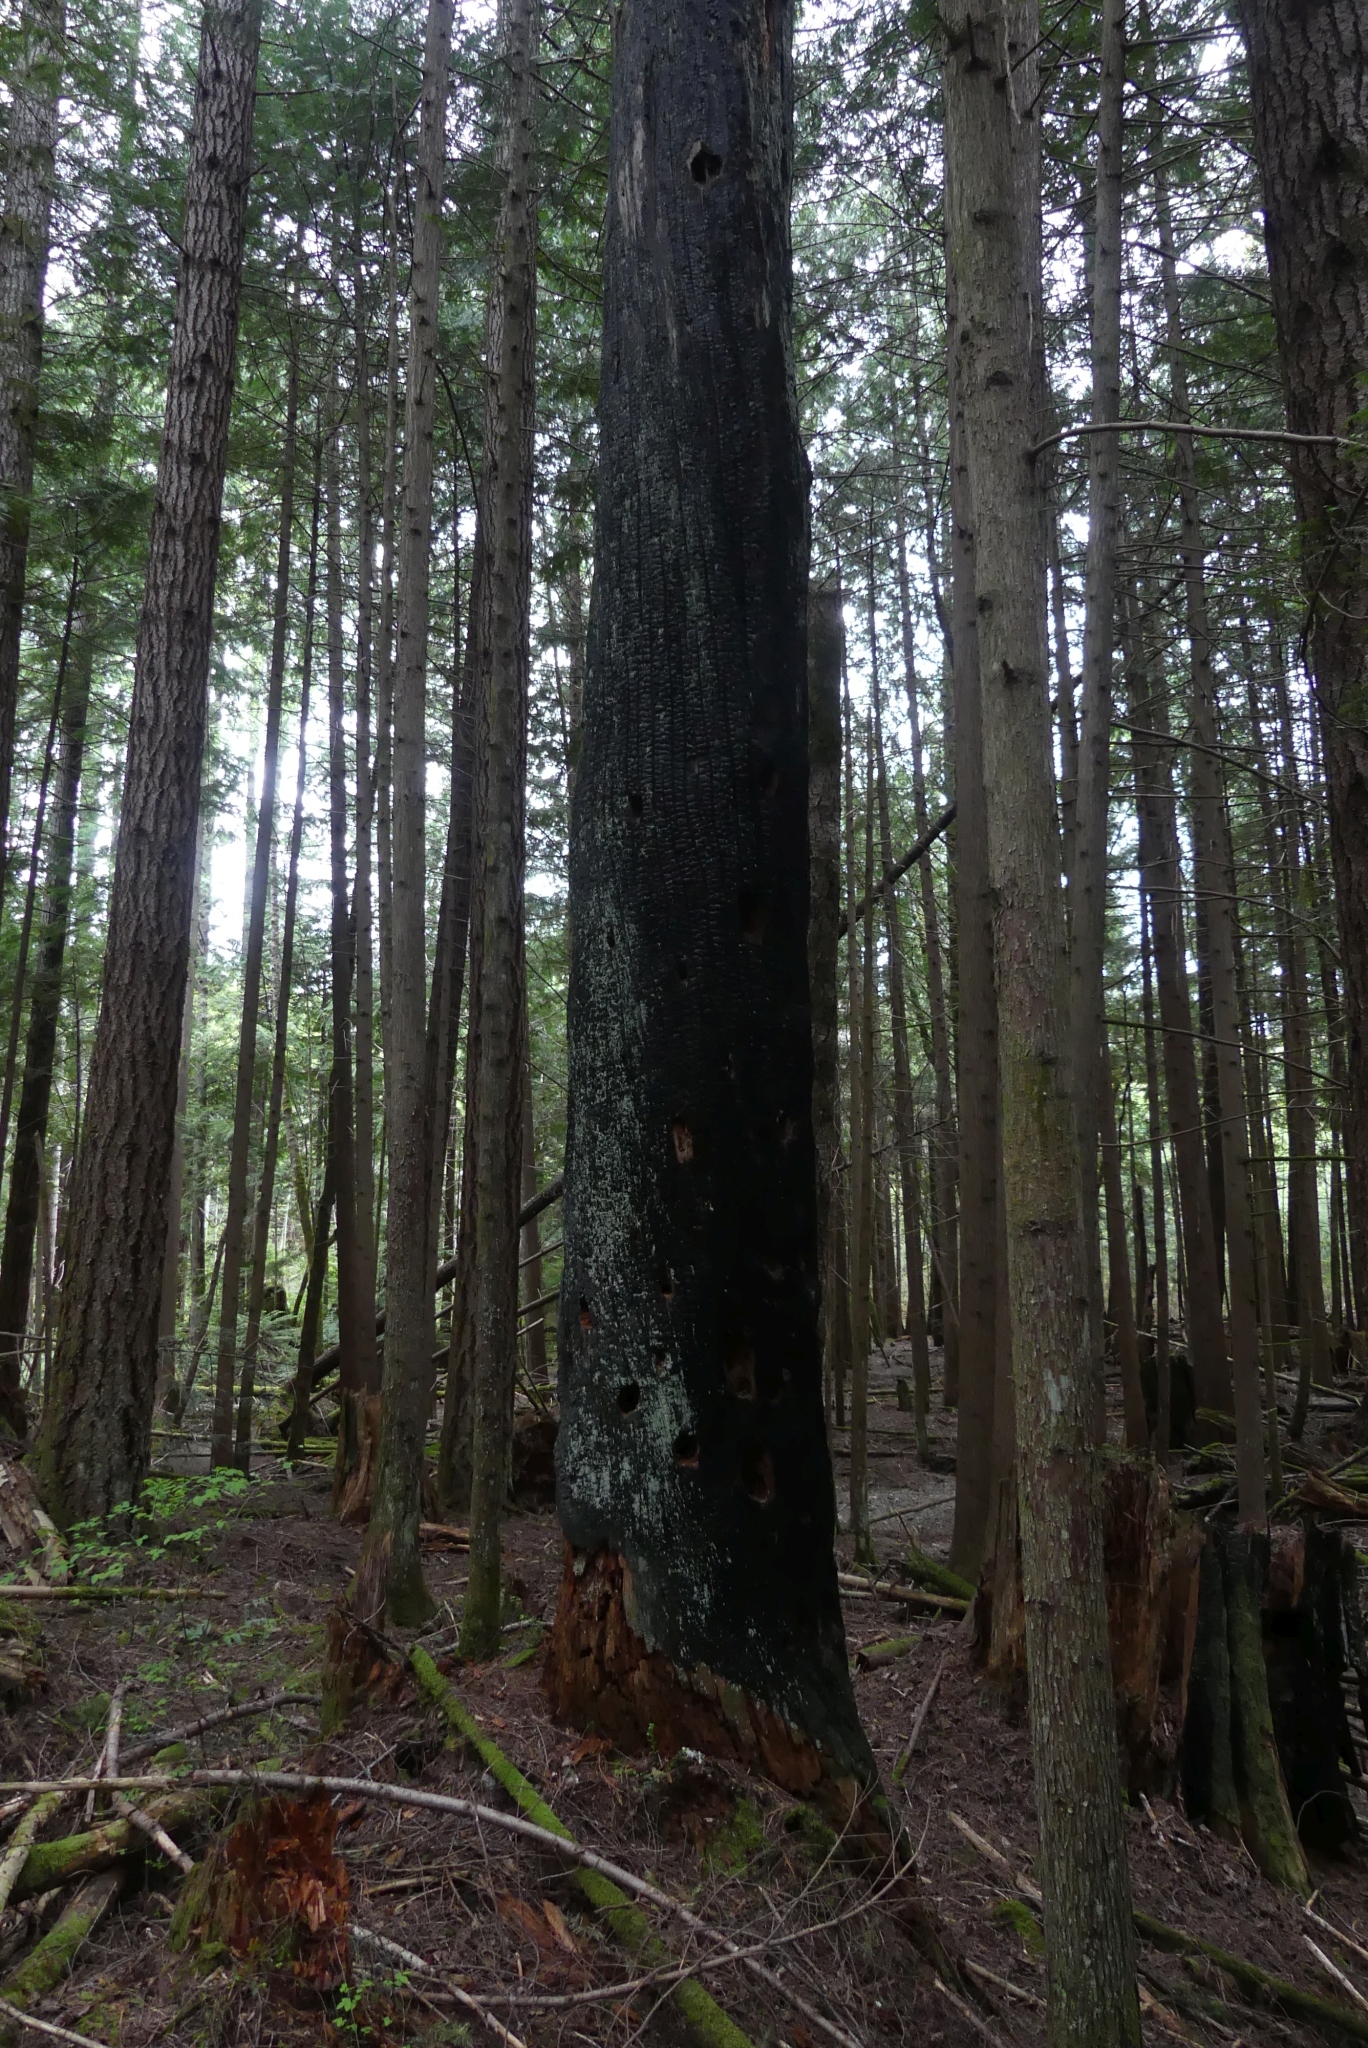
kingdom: Animalia
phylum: Chordata
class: Aves
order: Piciformes
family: Picidae
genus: Dryocopus
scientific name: Dryocopus pileatus
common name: Pileated woodpecker
